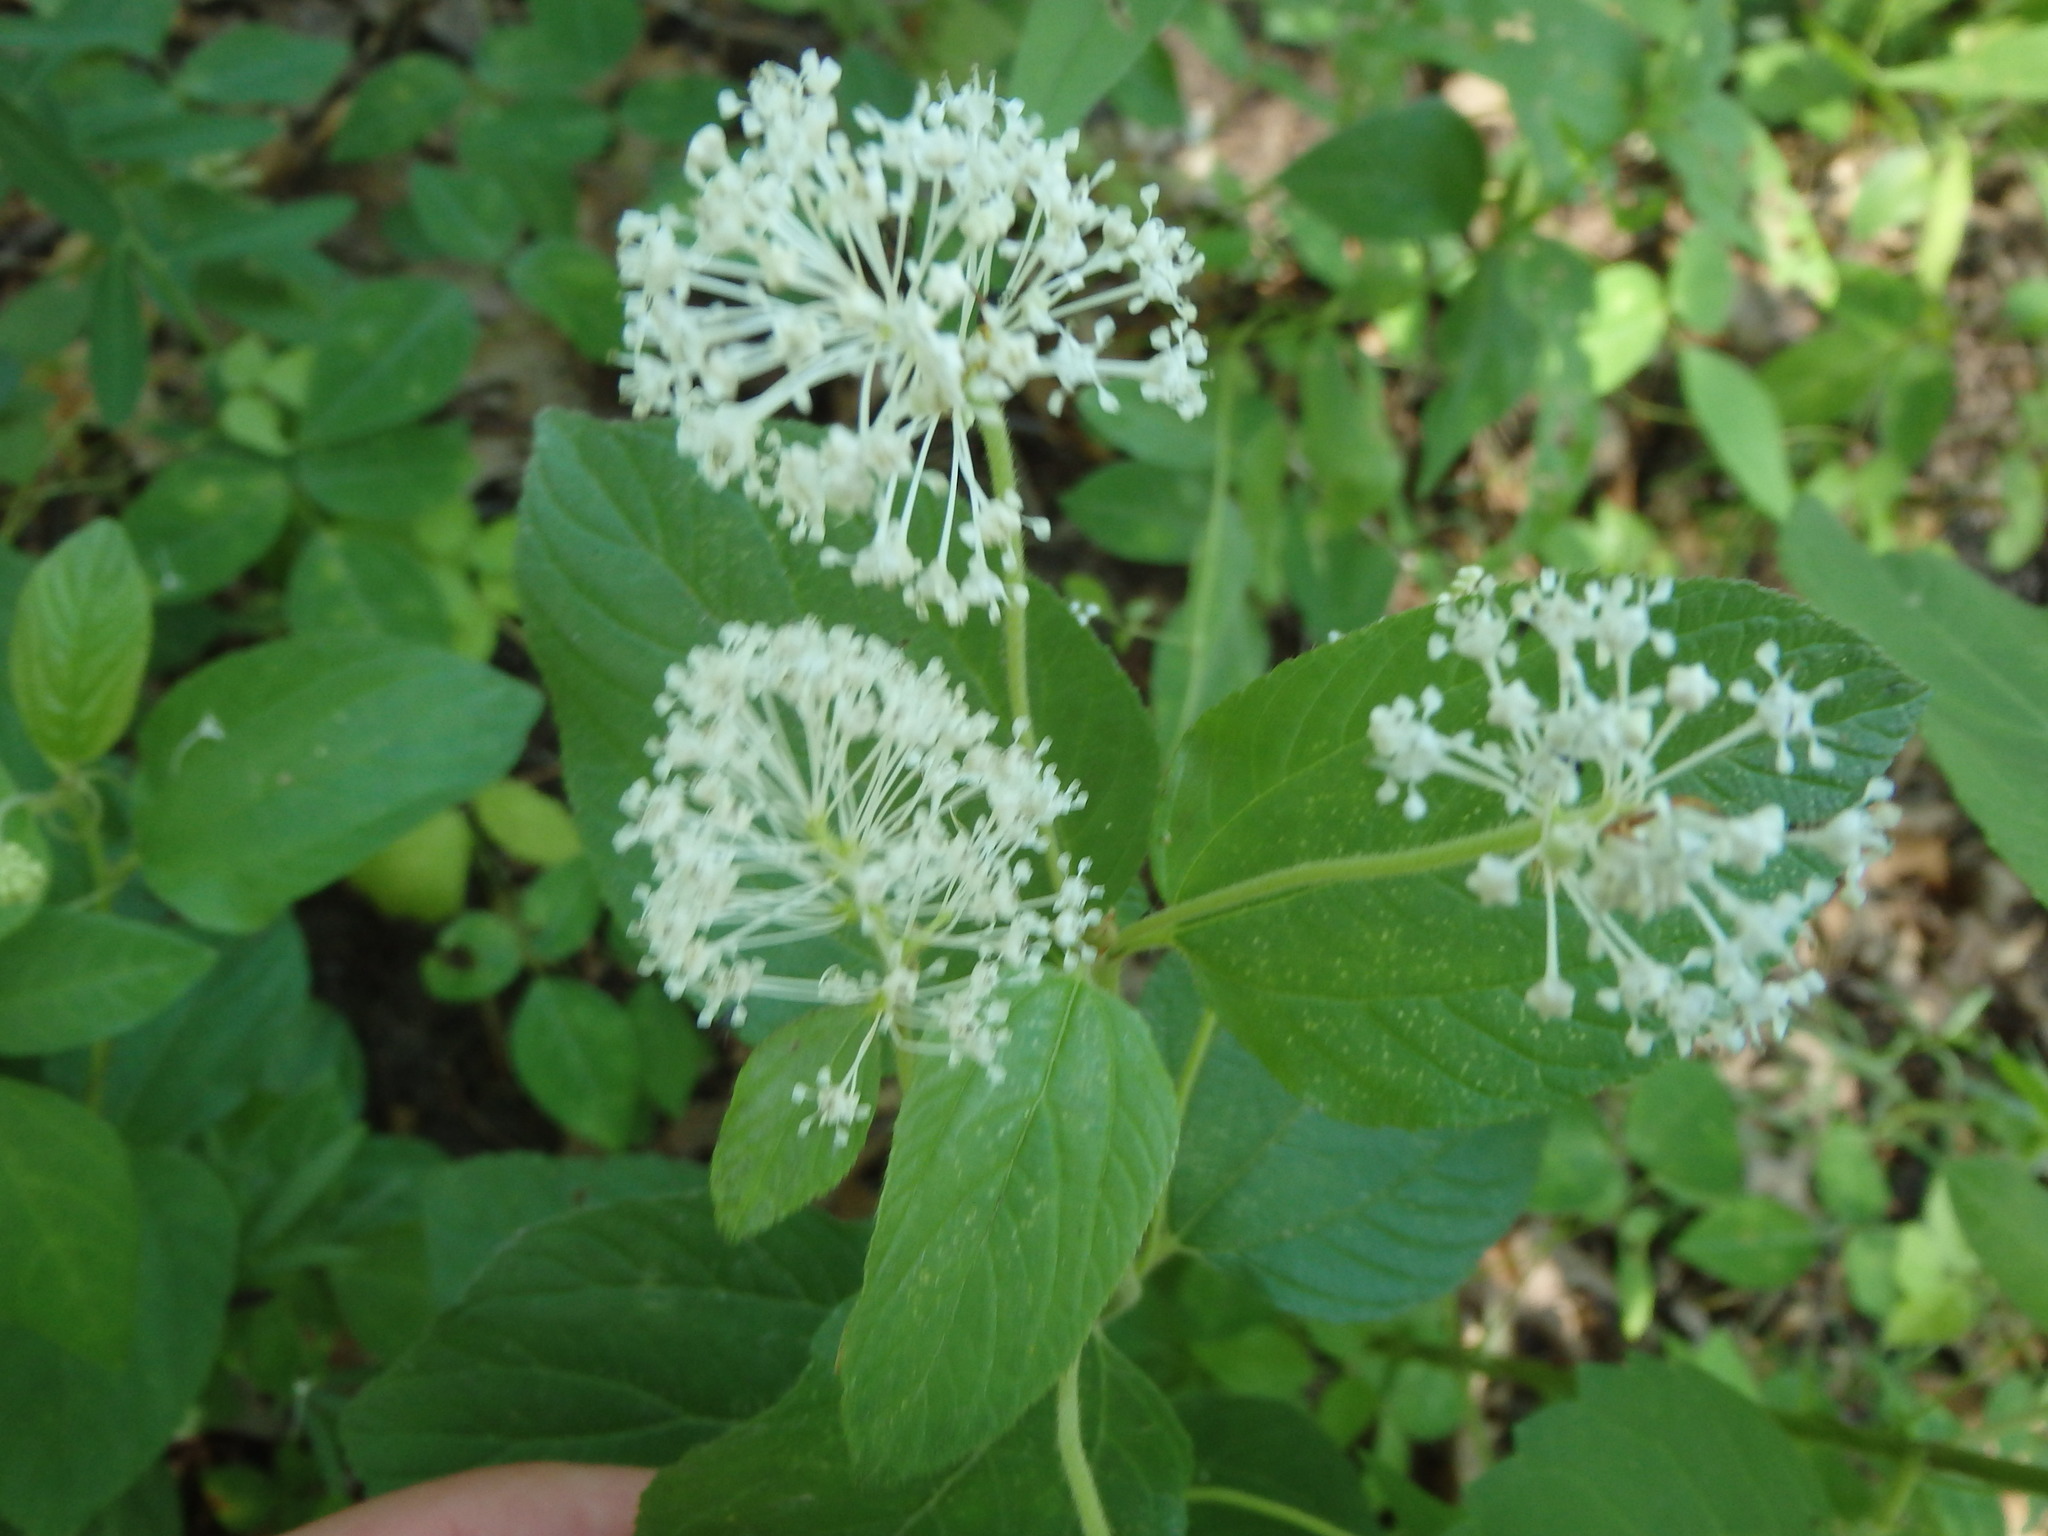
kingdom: Plantae
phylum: Tracheophyta
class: Magnoliopsida
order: Rosales
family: Rhamnaceae
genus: Ceanothus
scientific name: Ceanothus americanus
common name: Redroot
